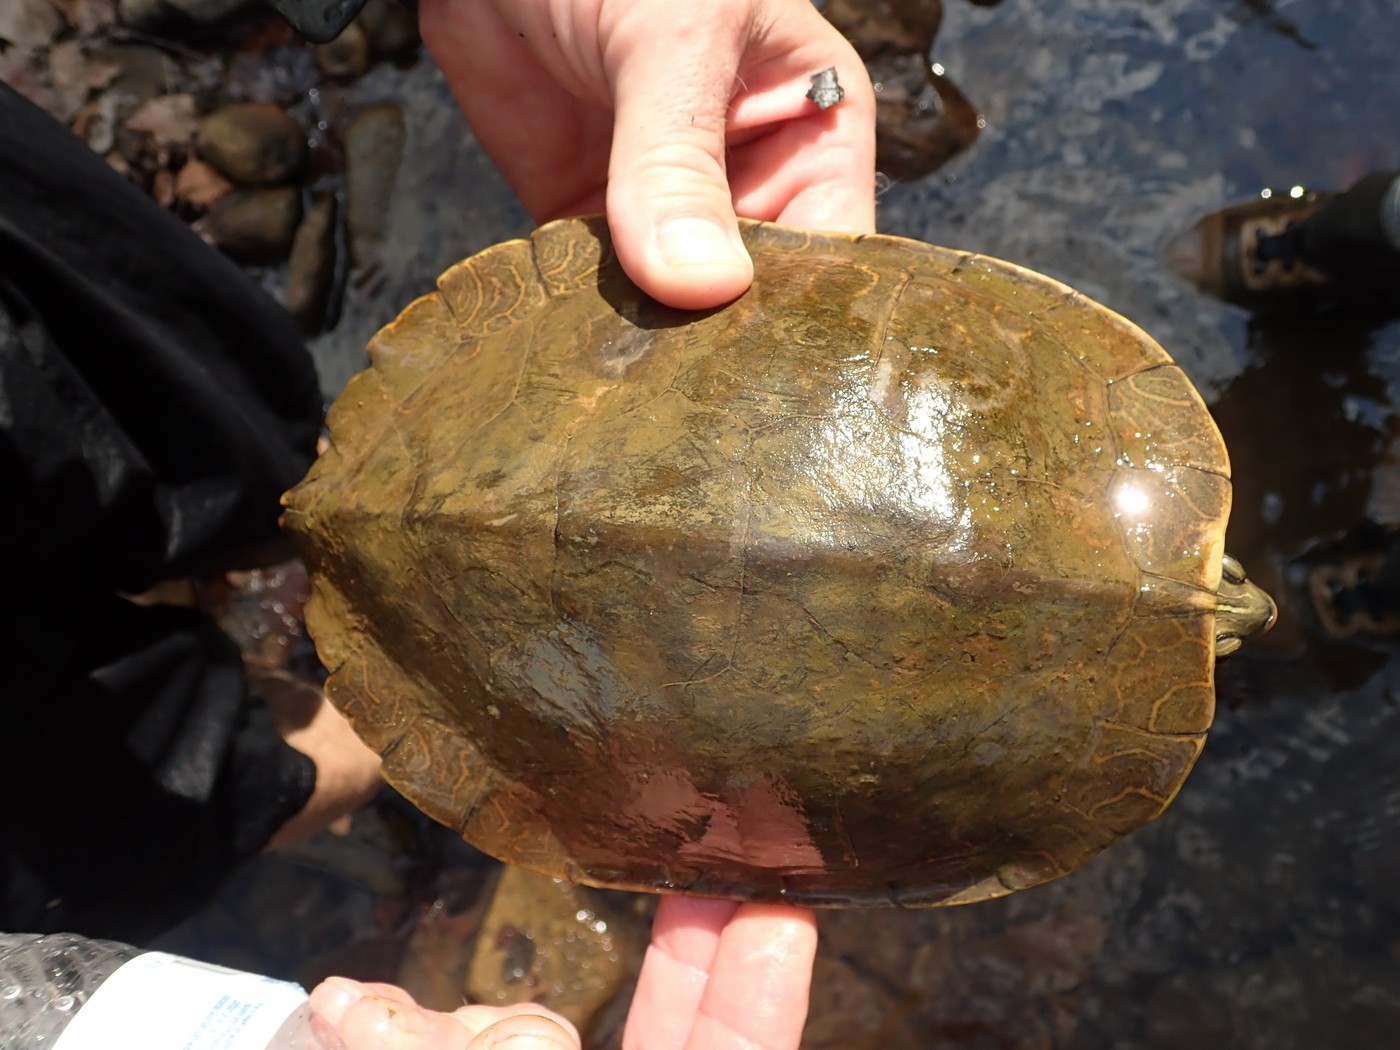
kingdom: Animalia
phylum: Chordata
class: Testudines
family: Emydidae
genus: Graptemys
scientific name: Graptemys geographica
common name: Common map turtle
